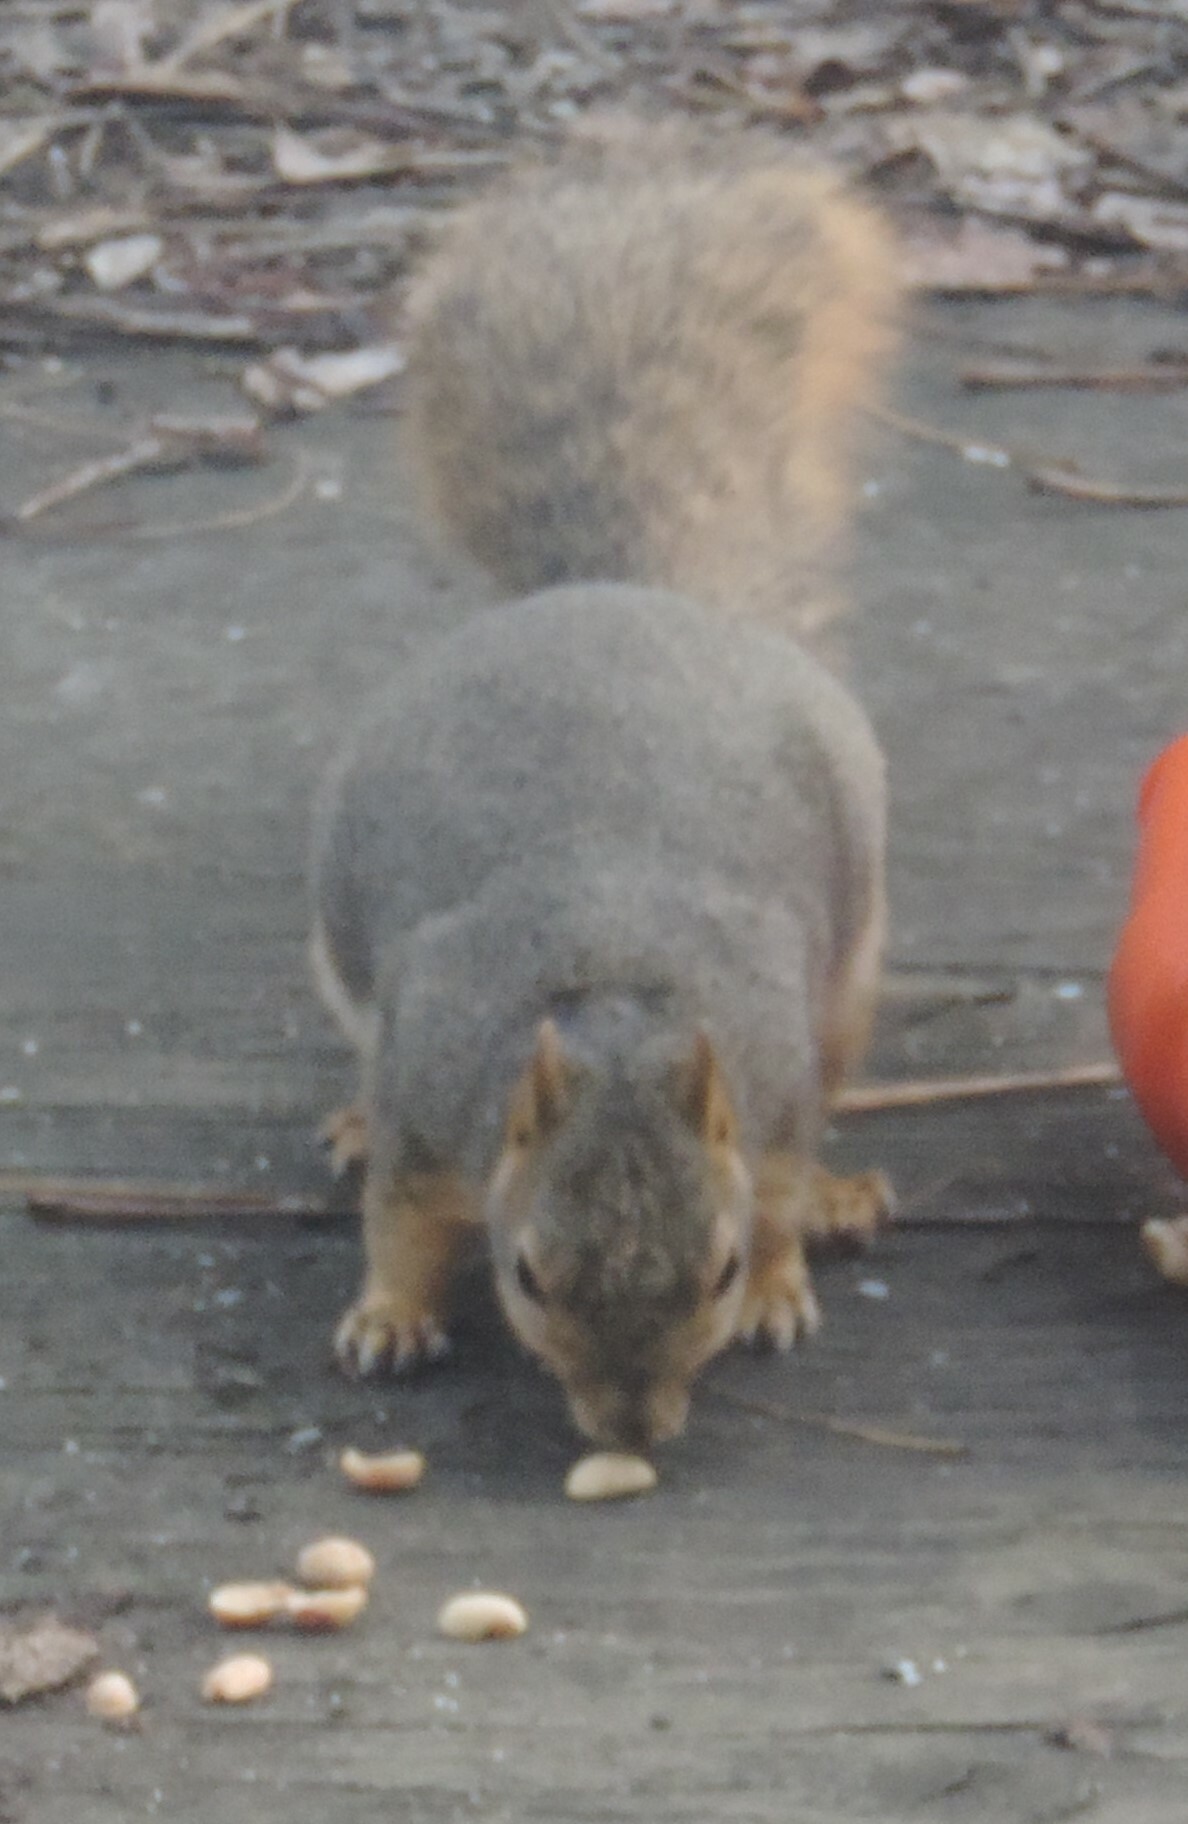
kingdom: Animalia
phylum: Chordata
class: Mammalia
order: Rodentia
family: Sciuridae
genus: Sciurus
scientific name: Sciurus niger
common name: Fox squirrel
